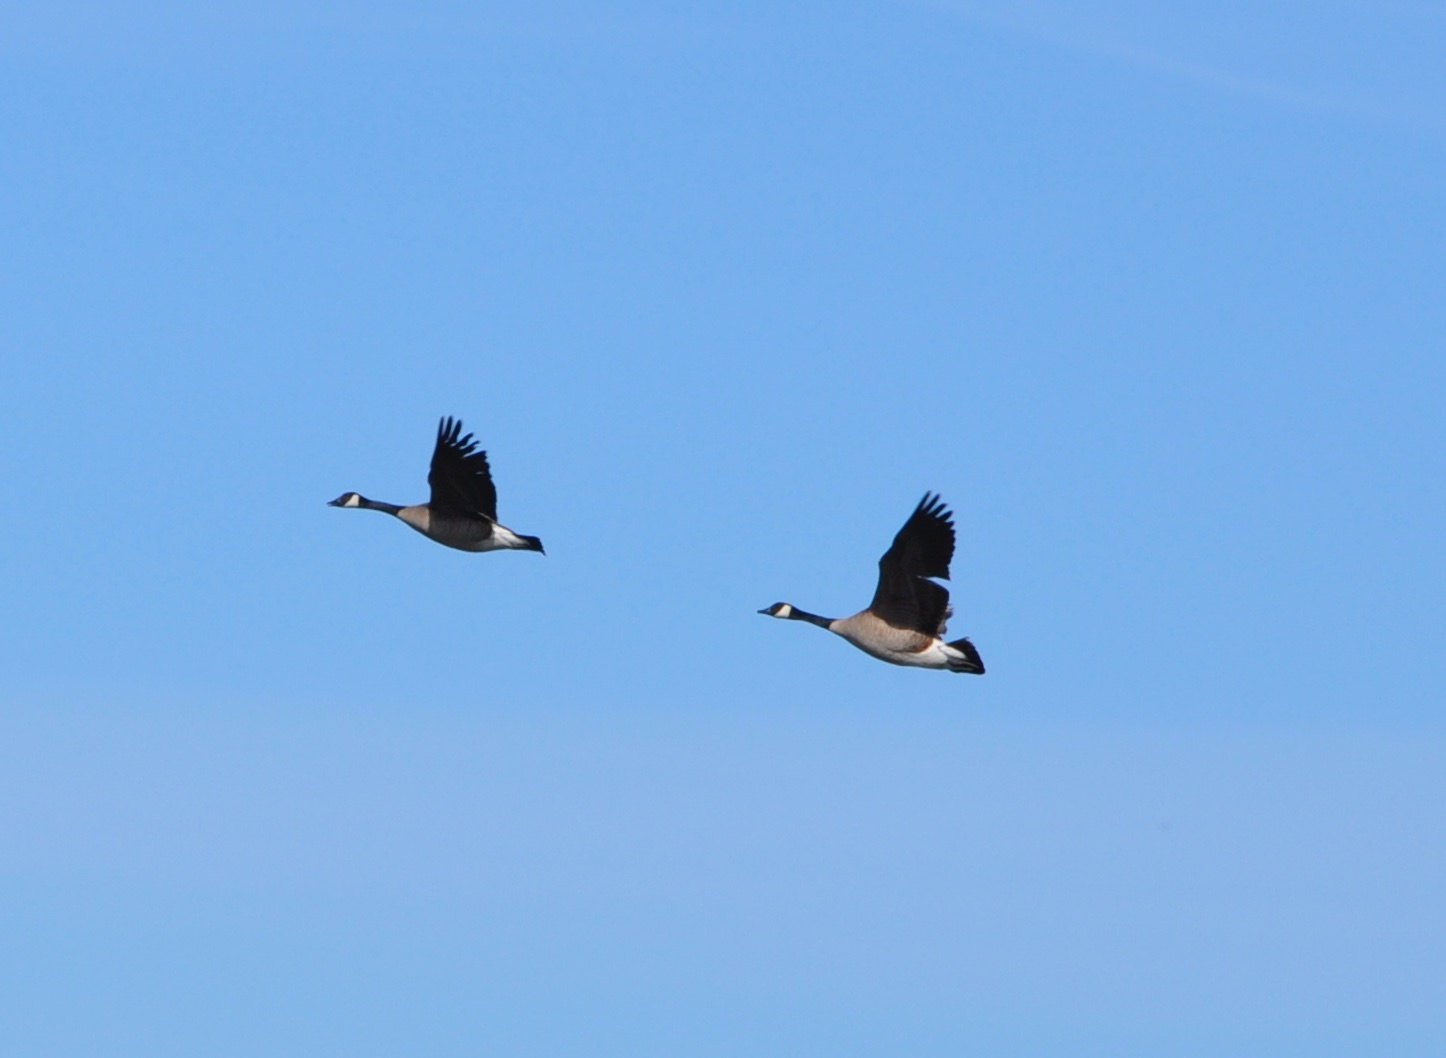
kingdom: Animalia
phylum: Chordata
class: Aves
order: Anseriformes
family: Anatidae
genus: Branta
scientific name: Branta canadensis
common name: Canada goose
